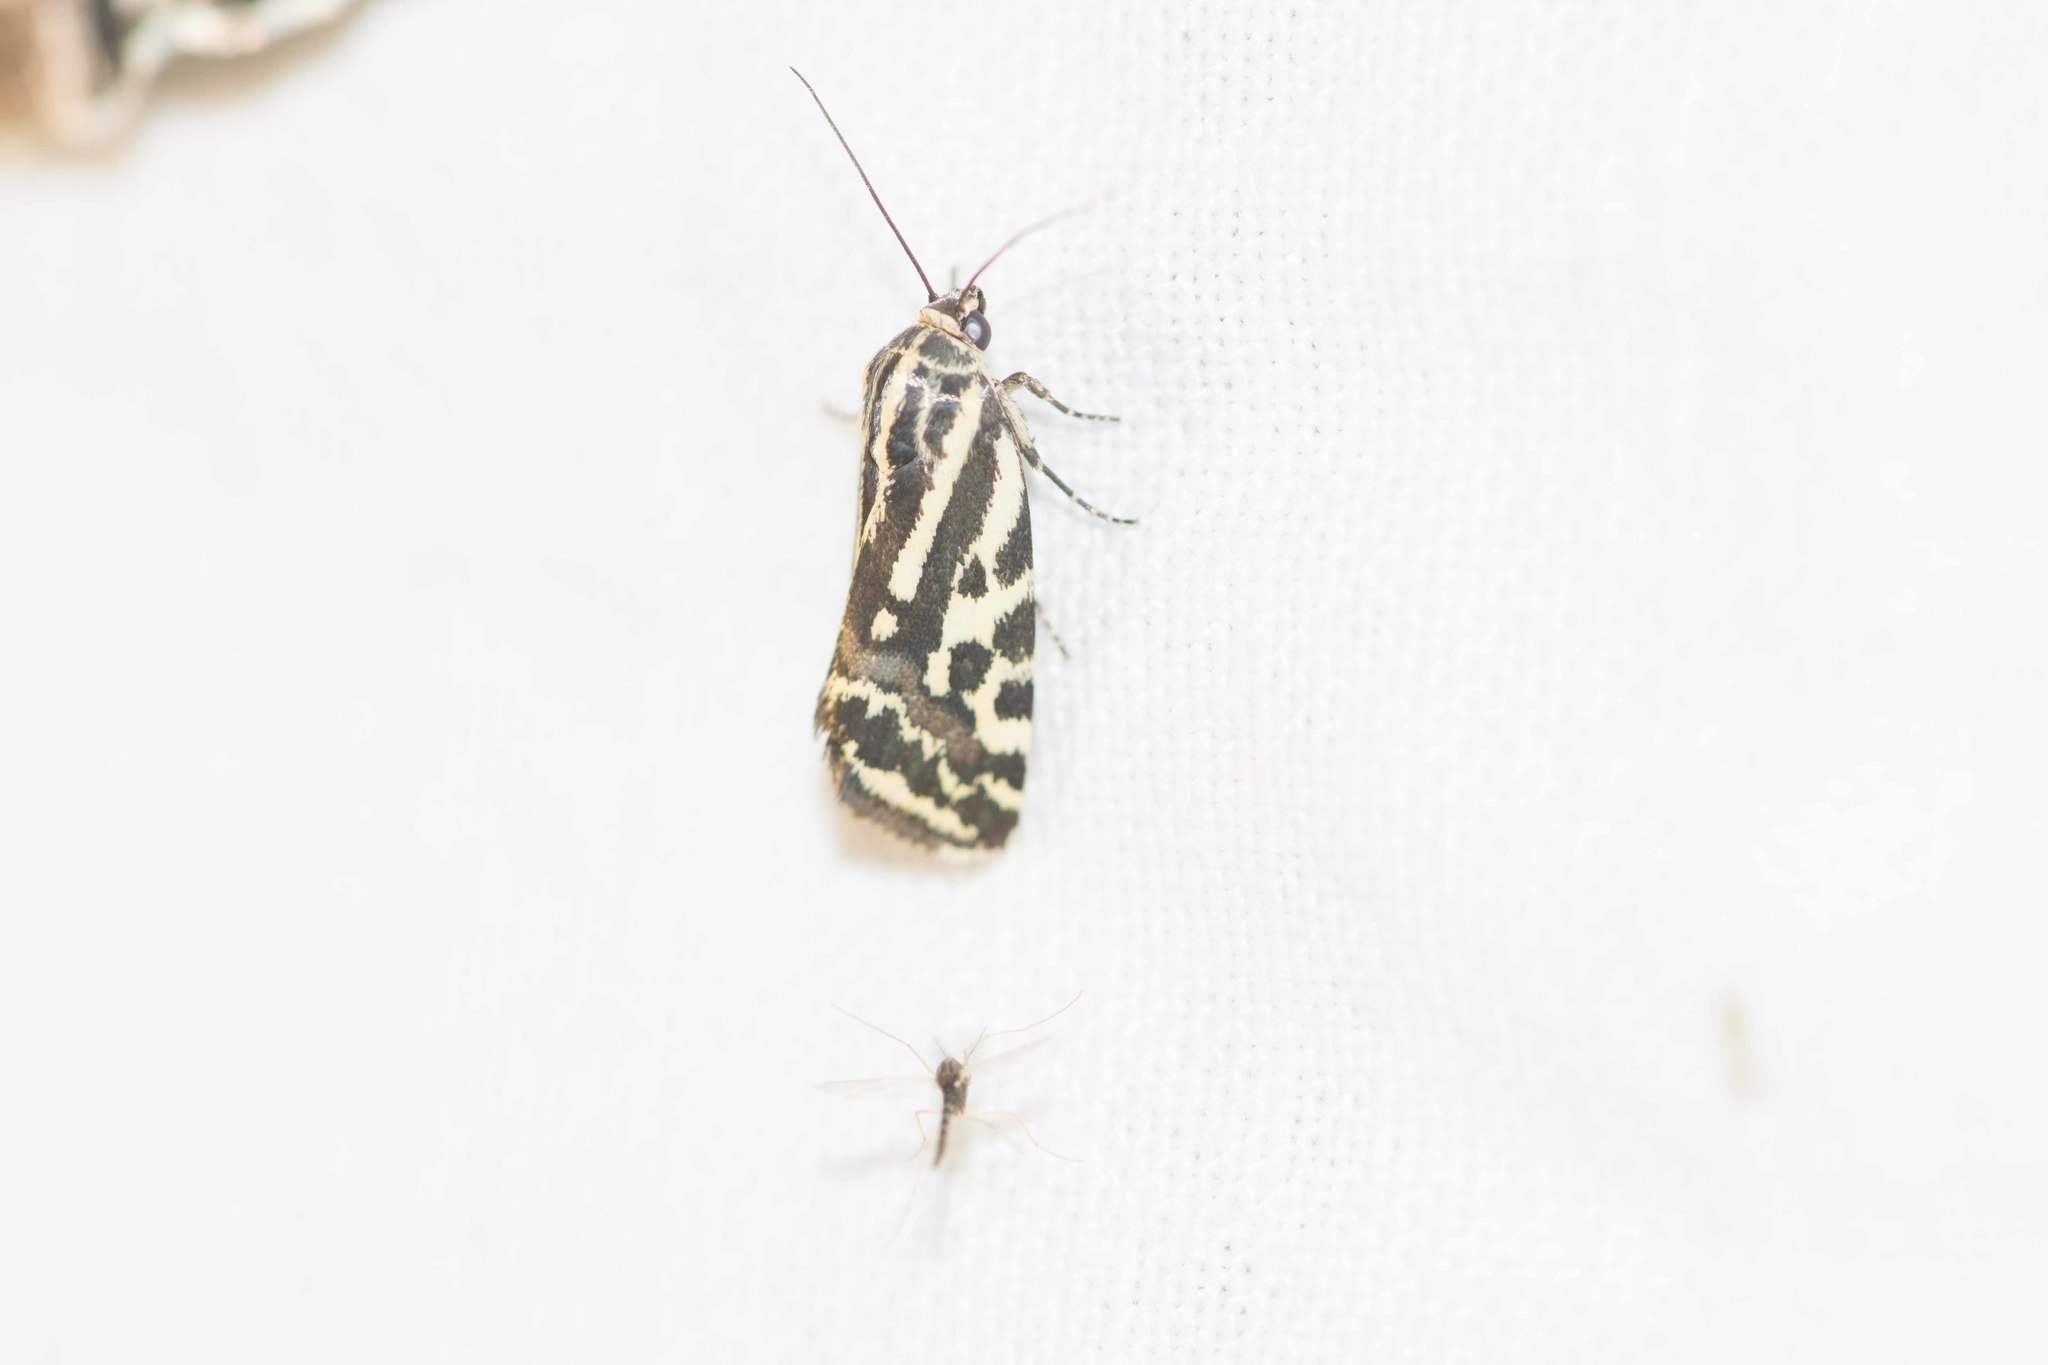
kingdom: Animalia
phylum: Arthropoda
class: Insecta
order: Lepidoptera
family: Noctuidae
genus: Acontia
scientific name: Acontia trabealis
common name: Spotted sulphur
